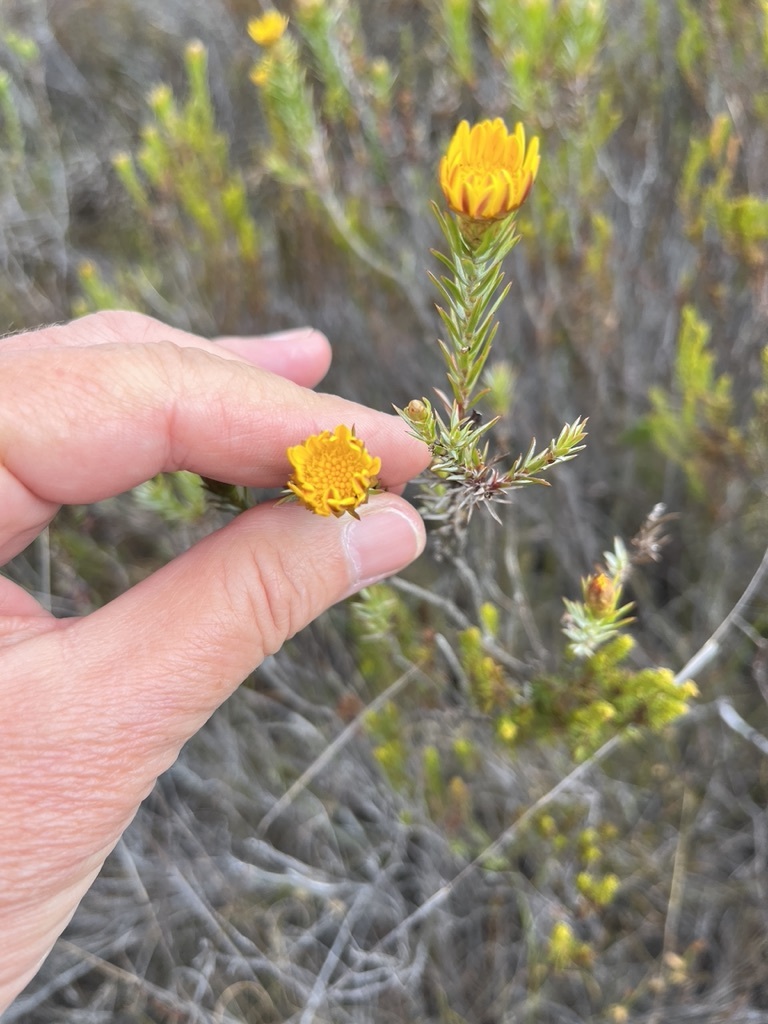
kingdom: Plantae
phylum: Tracheophyta
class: Magnoliopsida
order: Asterales
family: Asteraceae
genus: Oedera
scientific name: Oedera pungens
